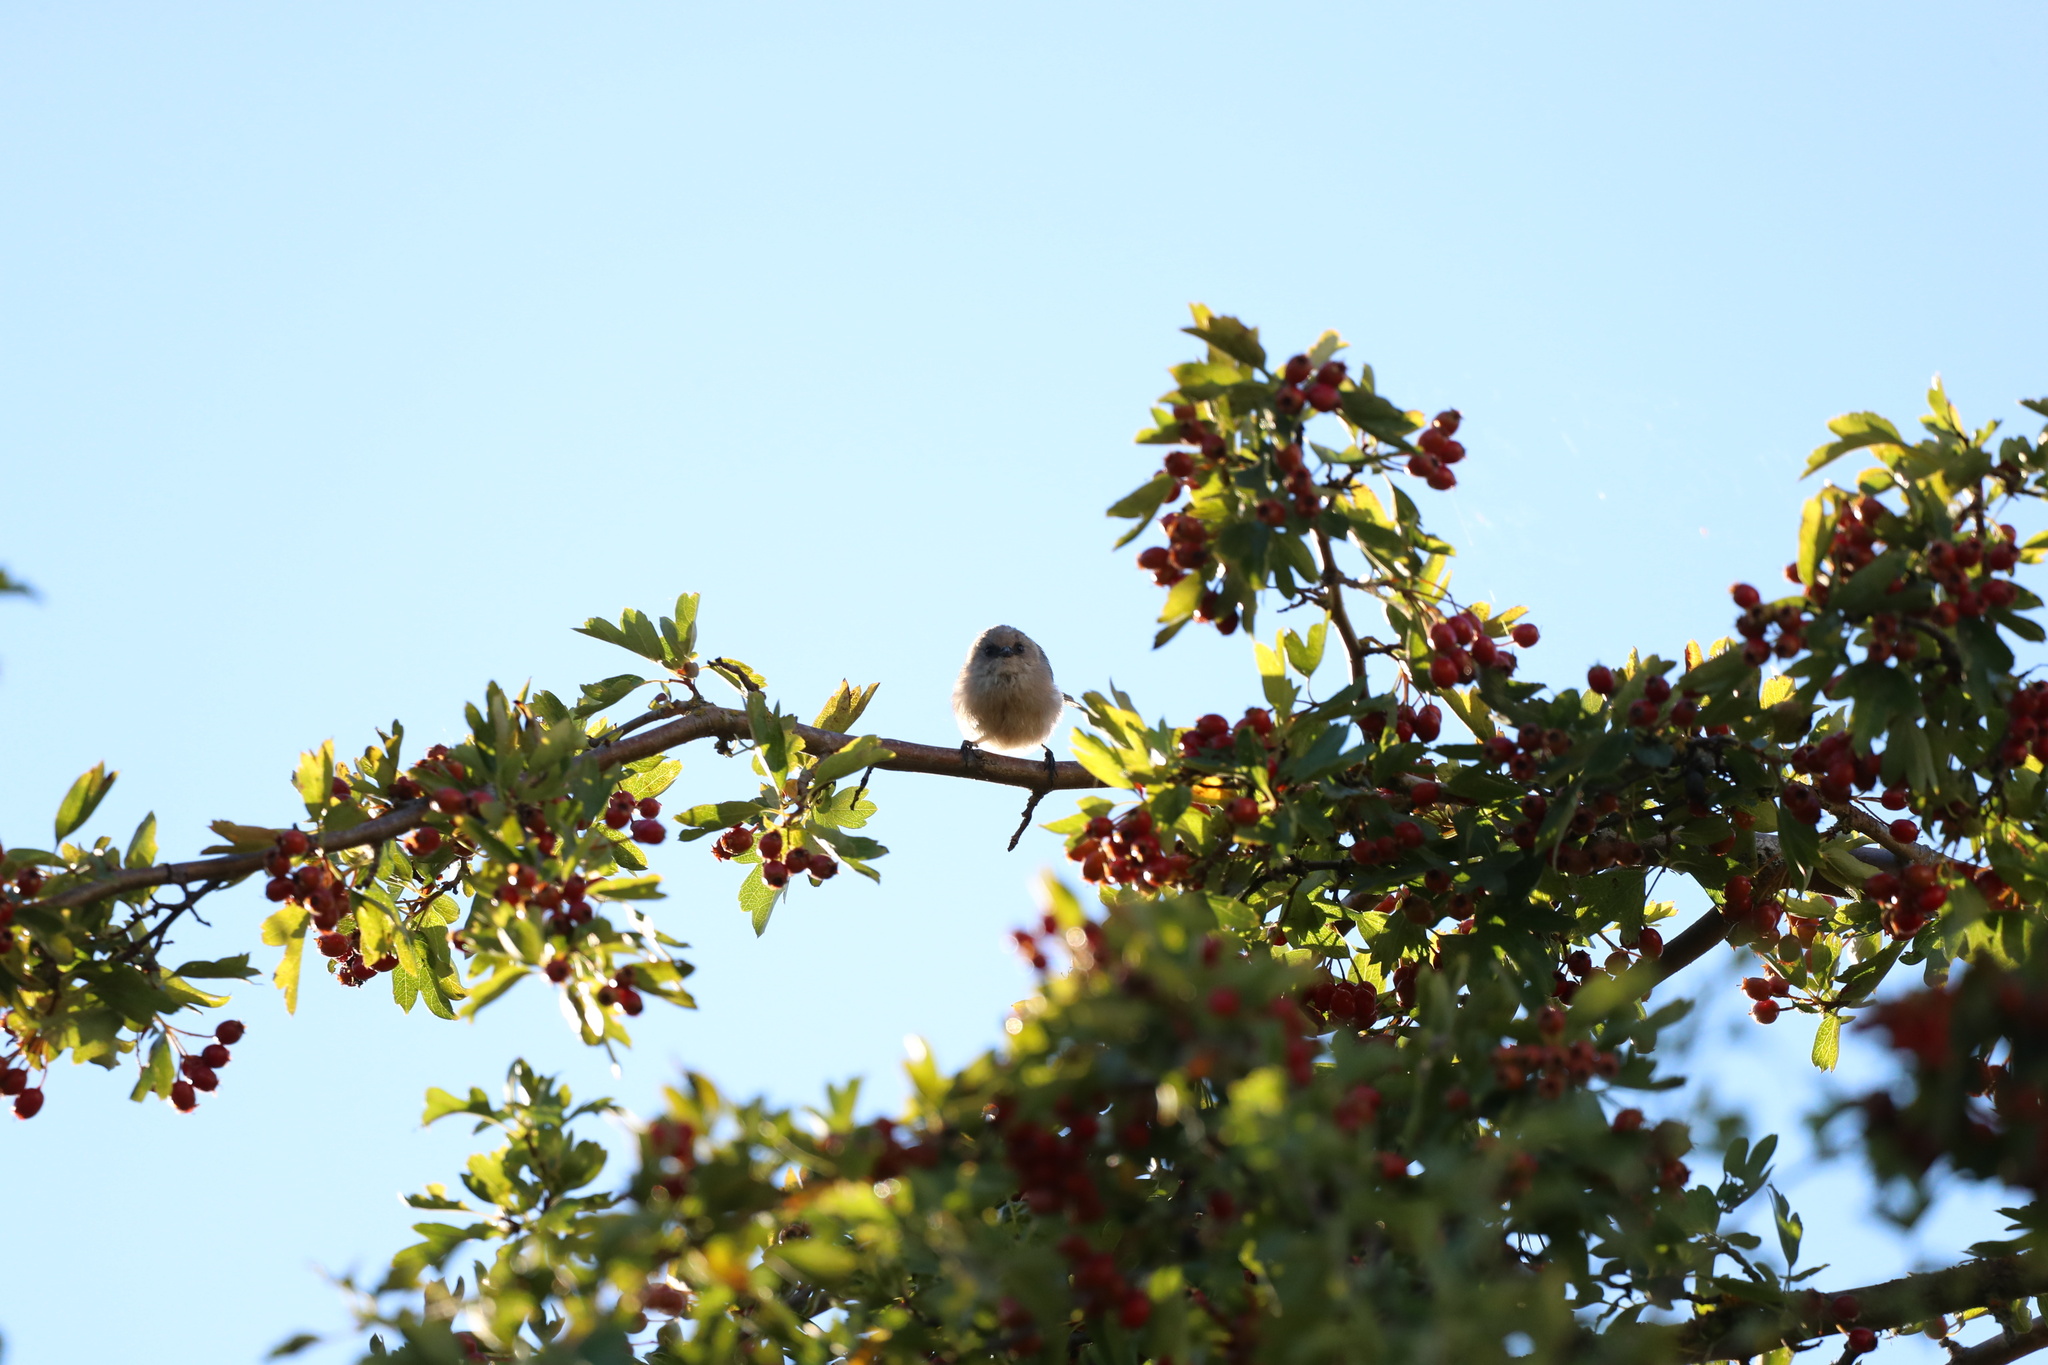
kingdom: Animalia
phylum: Chordata
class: Aves
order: Passeriformes
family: Aegithalidae
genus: Psaltriparus
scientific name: Psaltriparus minimus
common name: American bushtit
